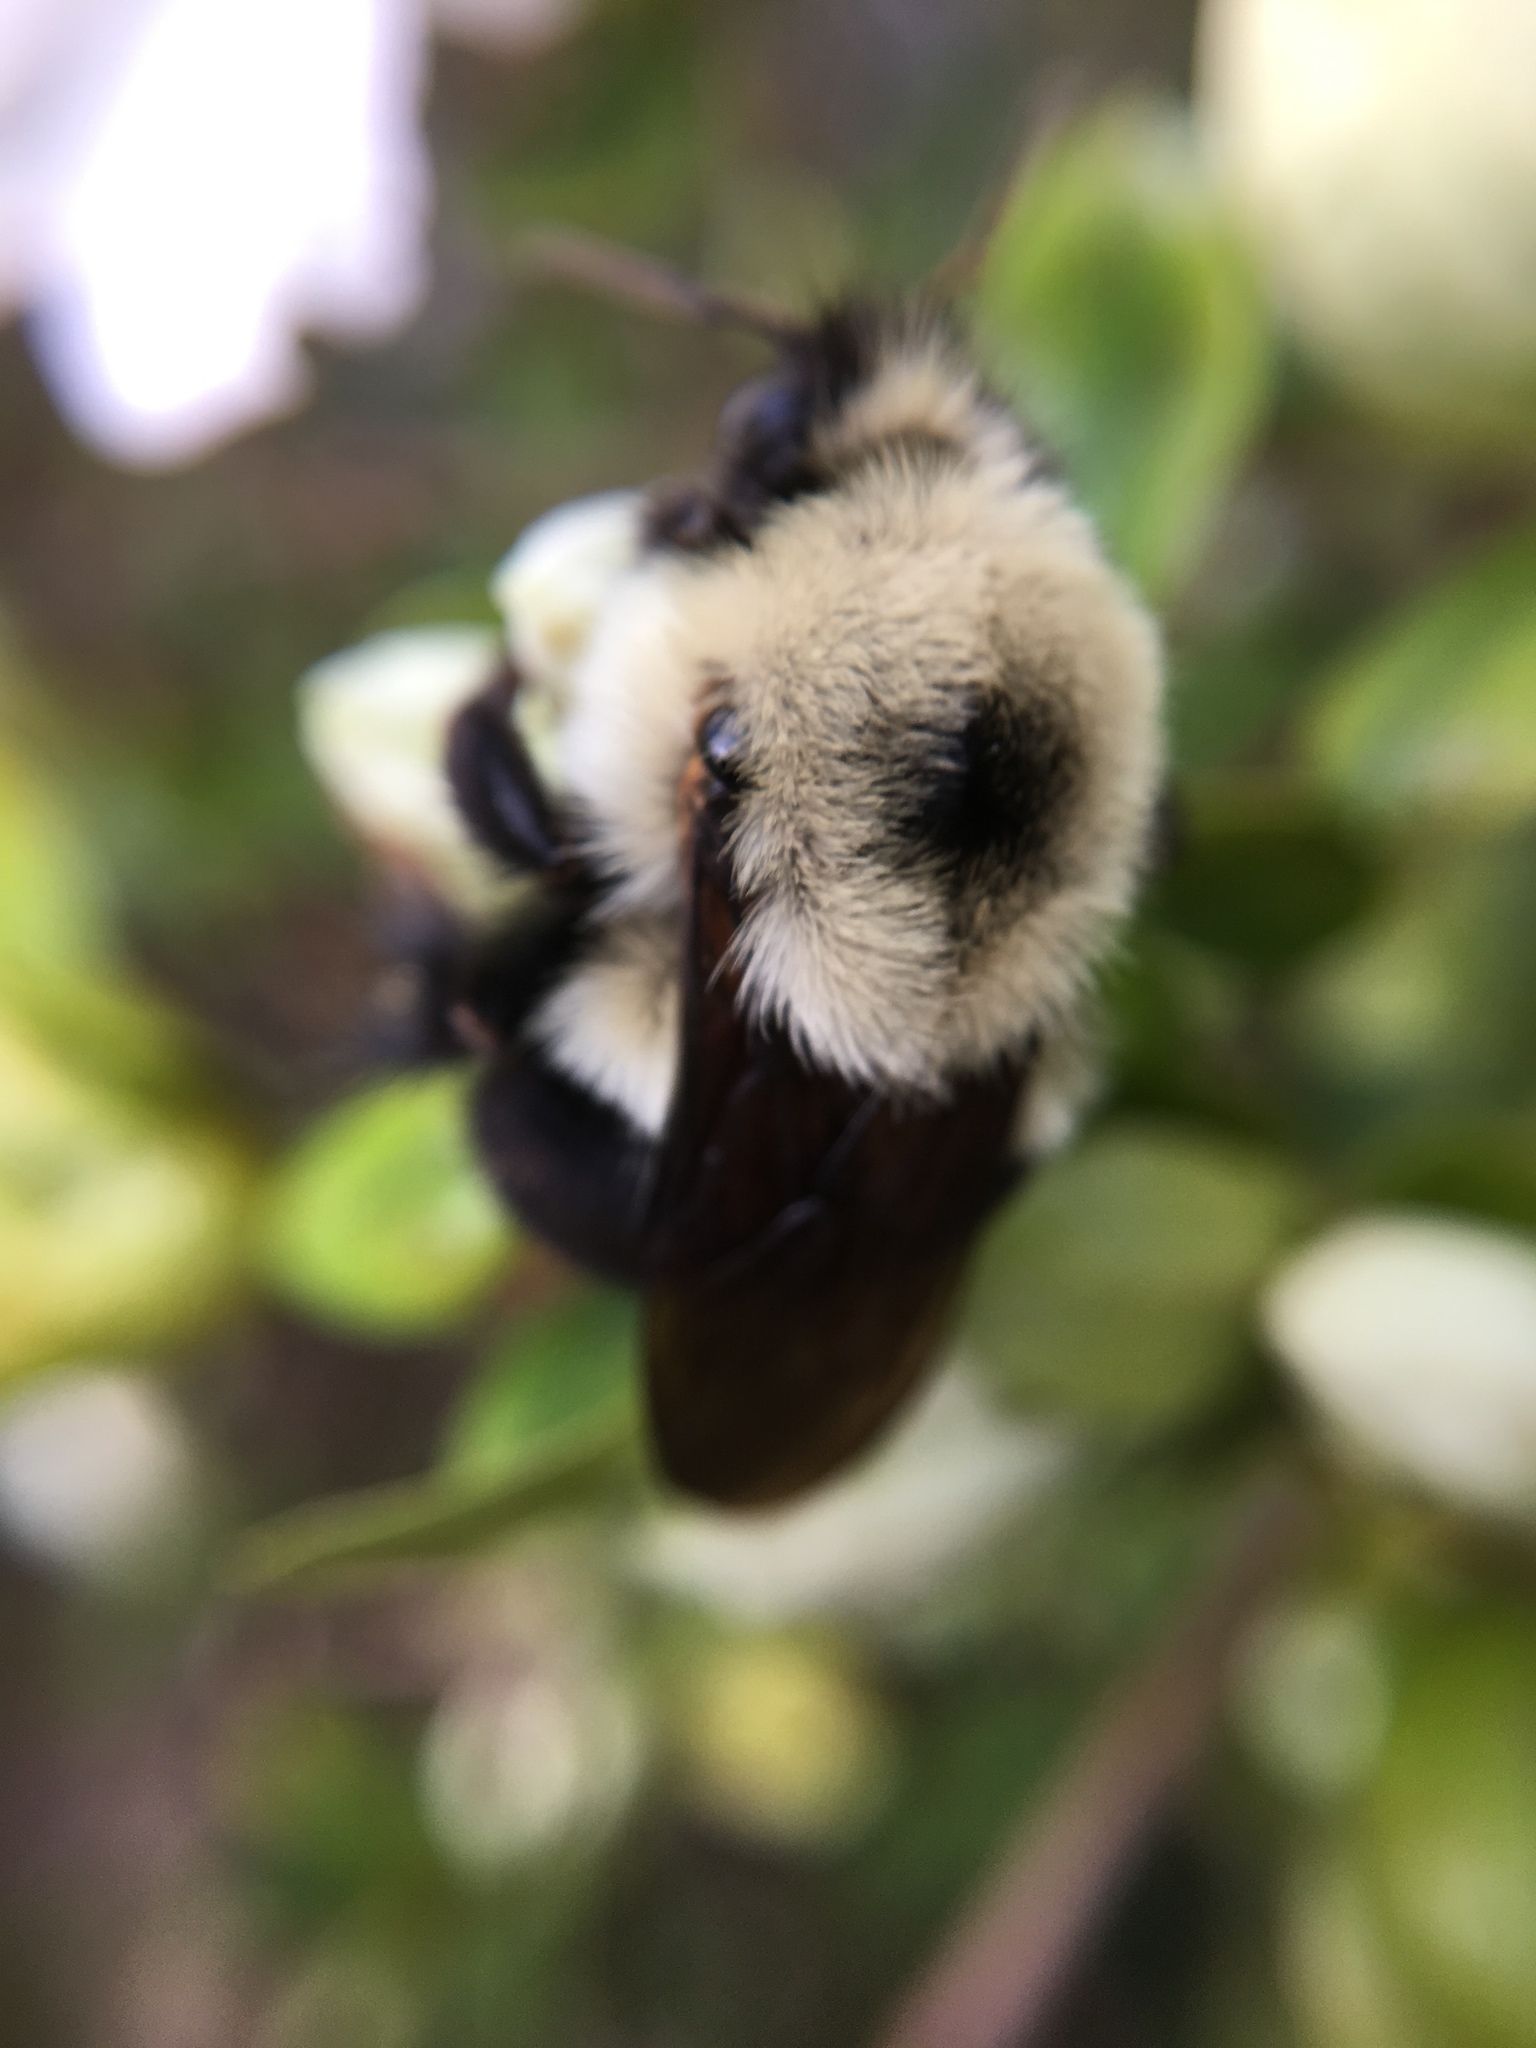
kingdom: Animalia
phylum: Arthropoda
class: Insecta
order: Hymenoptera
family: Apidae
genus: Bombus
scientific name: Bombus bimaculatus
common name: Two-spotted bumble bee
